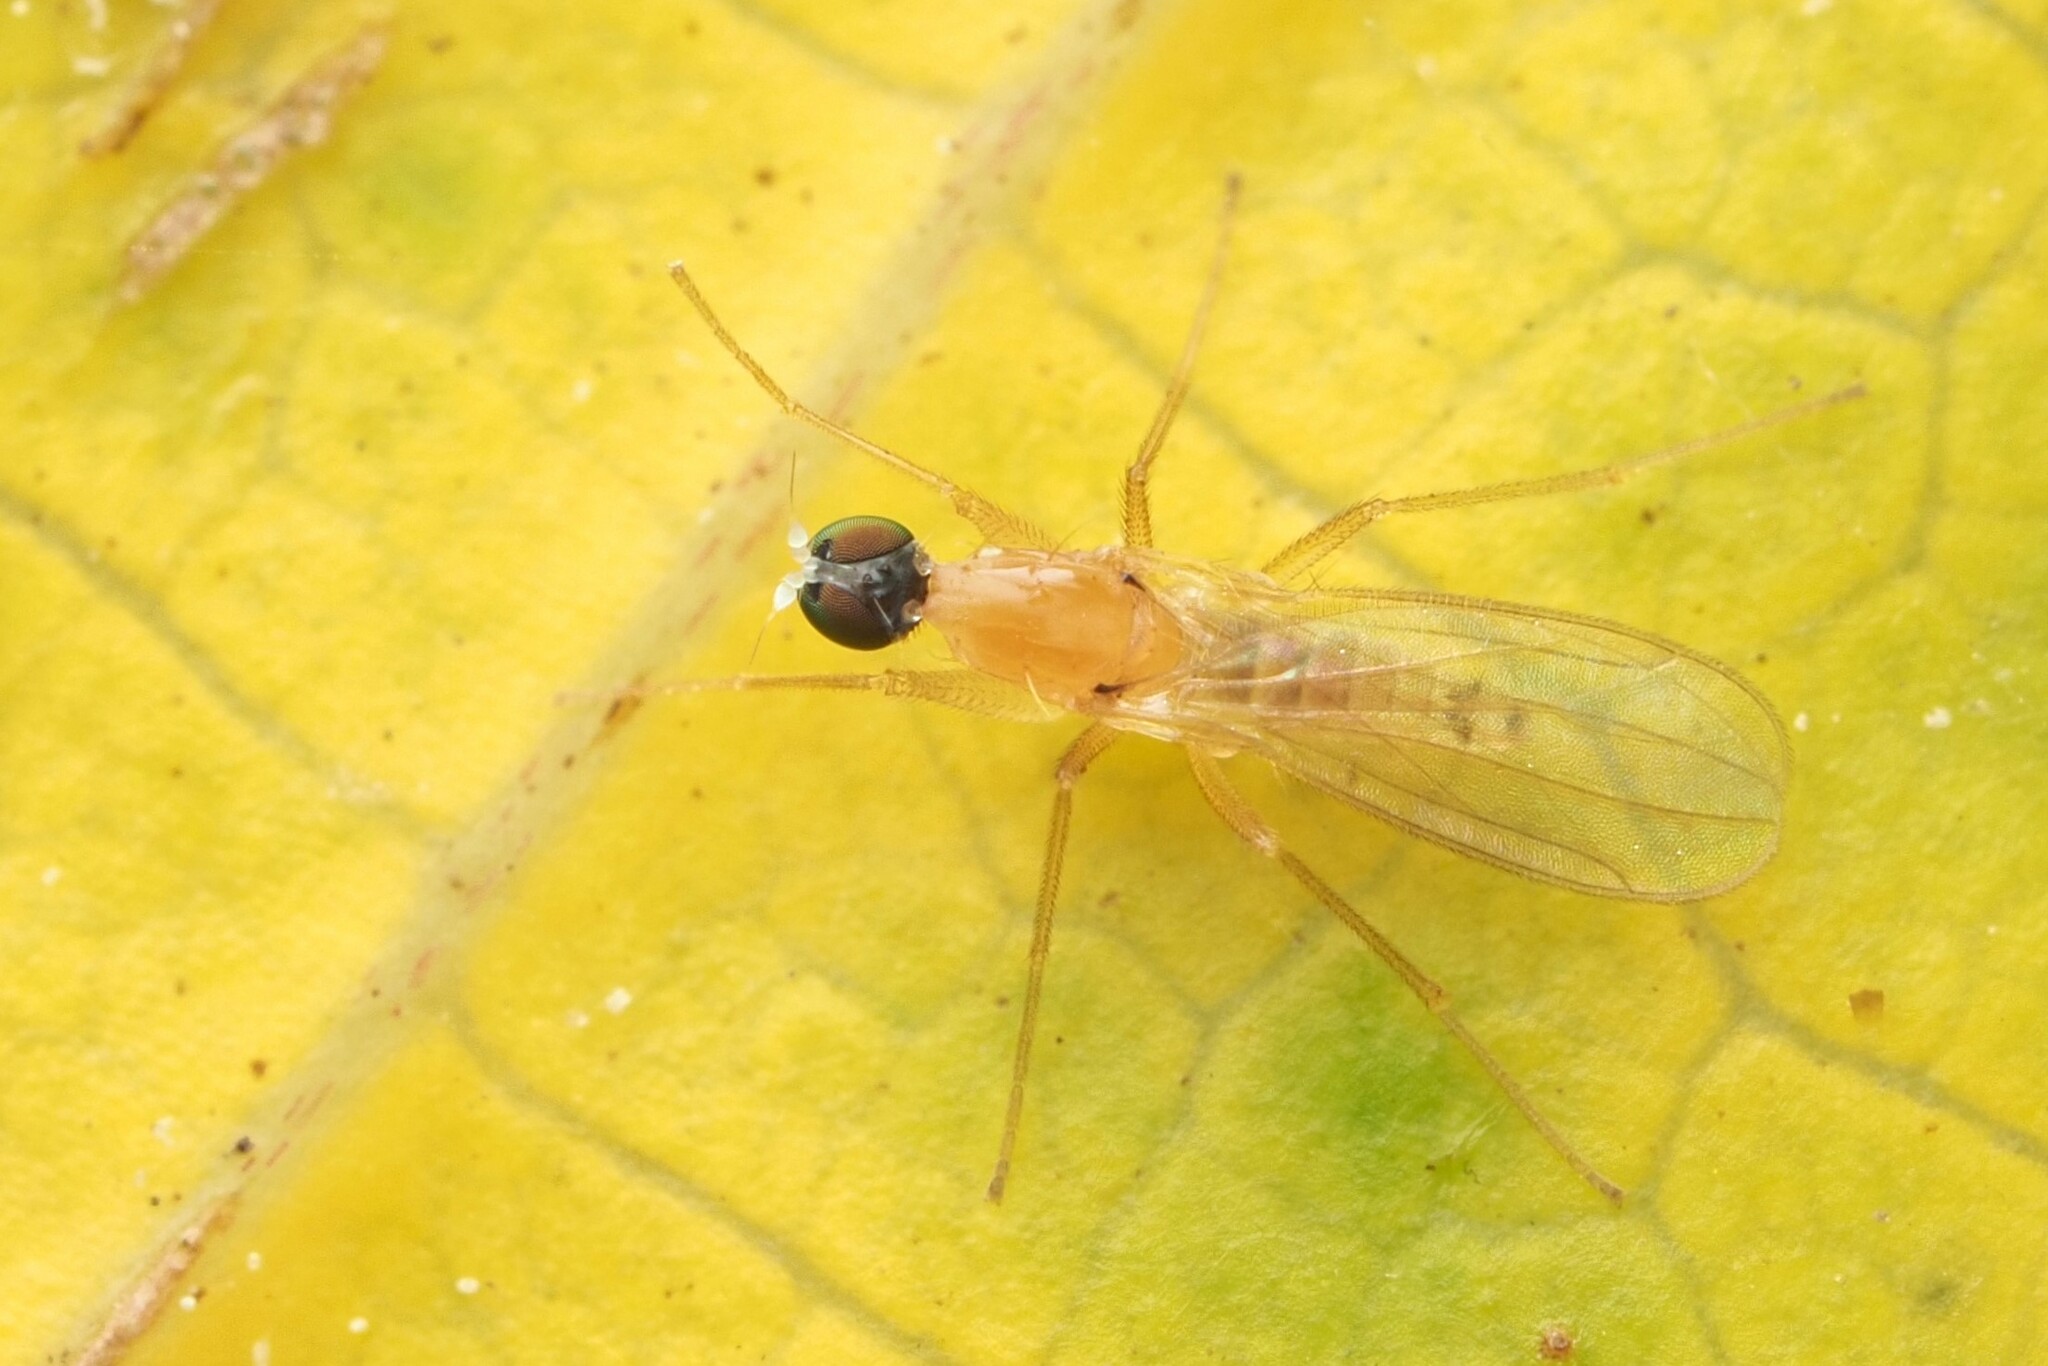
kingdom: Animalia
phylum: Arthropoda
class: Insecta
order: Diptera
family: Empididae
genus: Monodromia
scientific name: Monodromia fragilis
